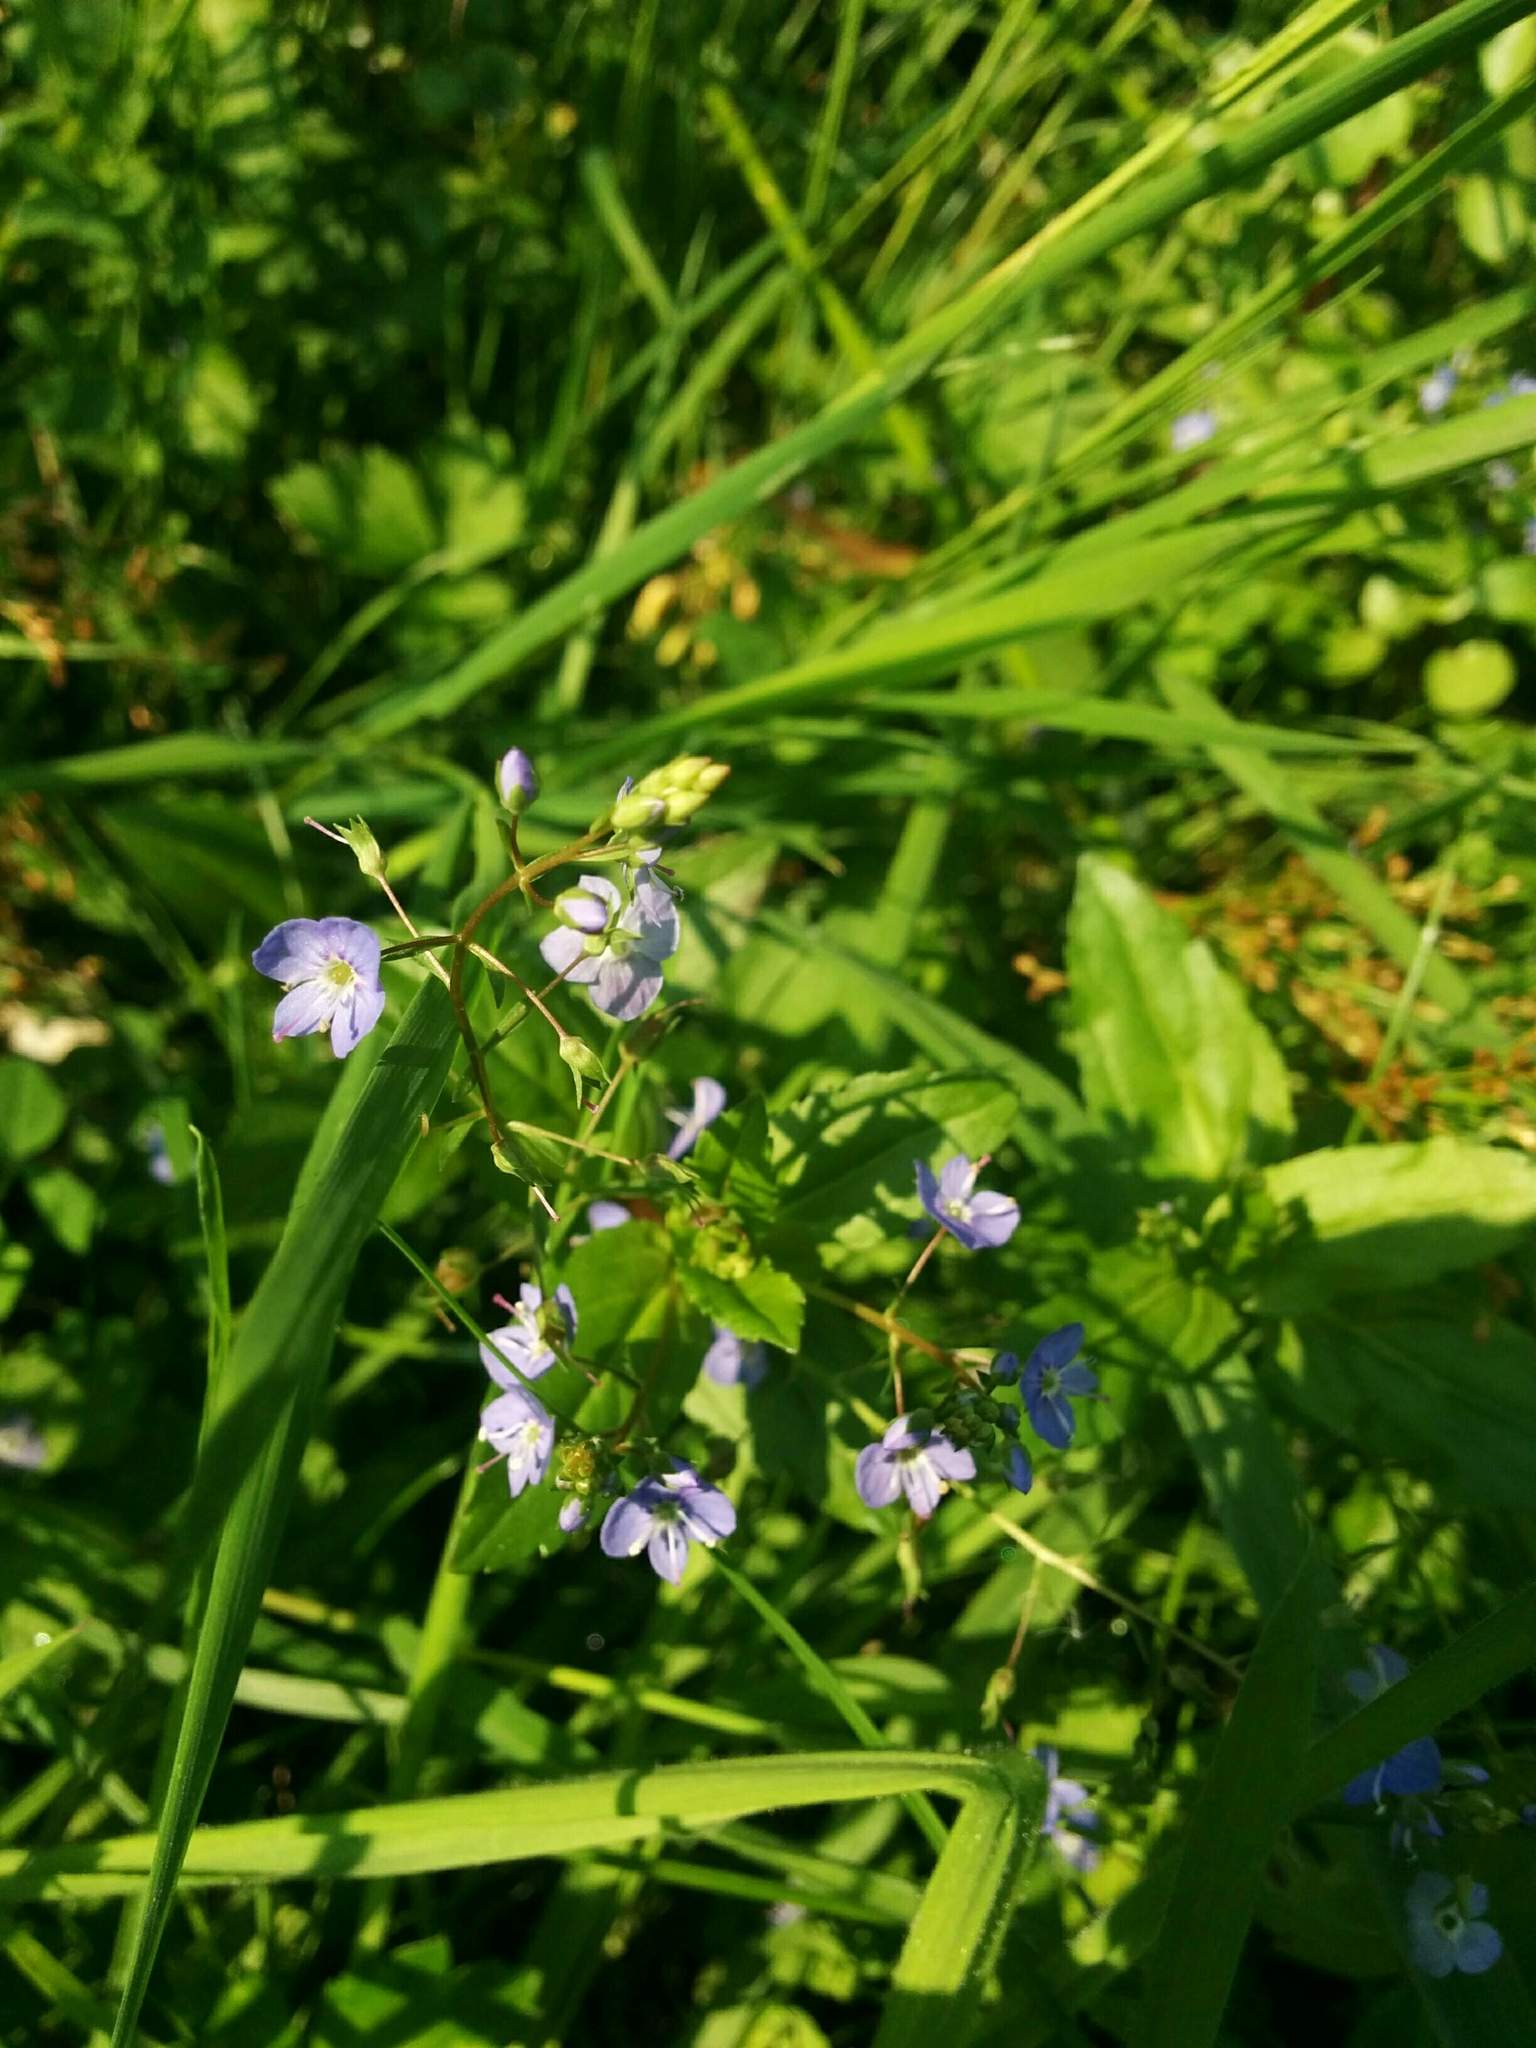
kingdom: Plantae
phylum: Tracheophyta
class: Magnoliopsida
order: Lamiales
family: Plantaginaceae
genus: Veronica
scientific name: Veronica americana
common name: American brooklime
